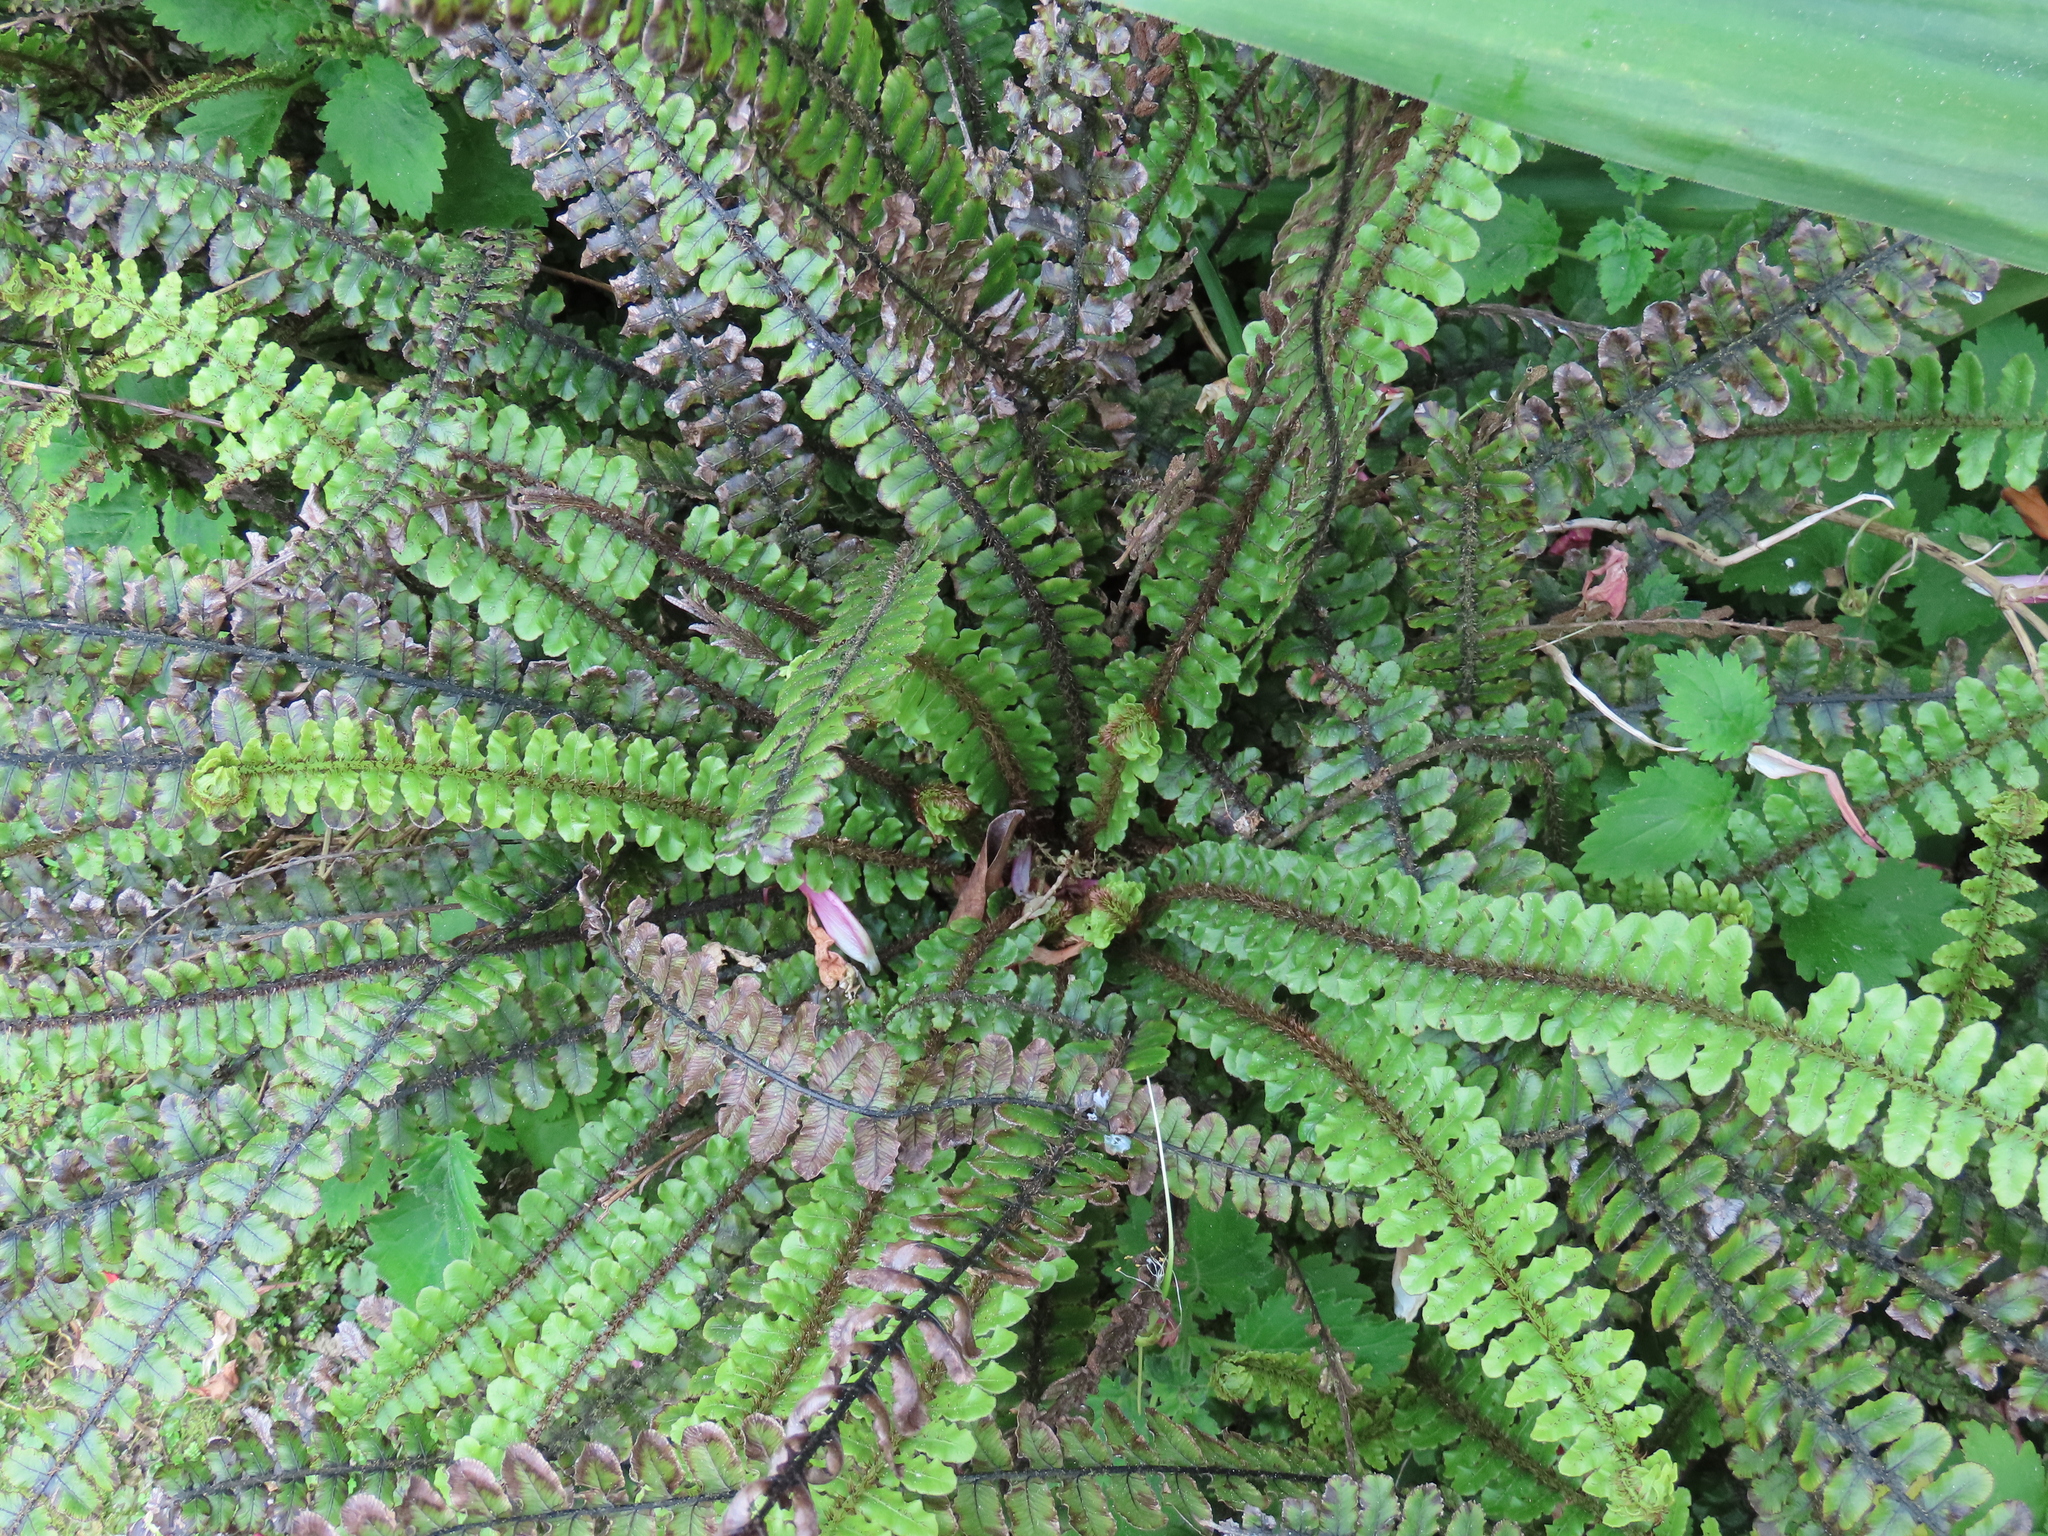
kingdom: Plantae
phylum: Tracheophyta
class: Polypodiopsida
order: Polypodiales
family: Blechnaceae
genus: Cranfillia
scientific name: Cranfillia fluviatilis
